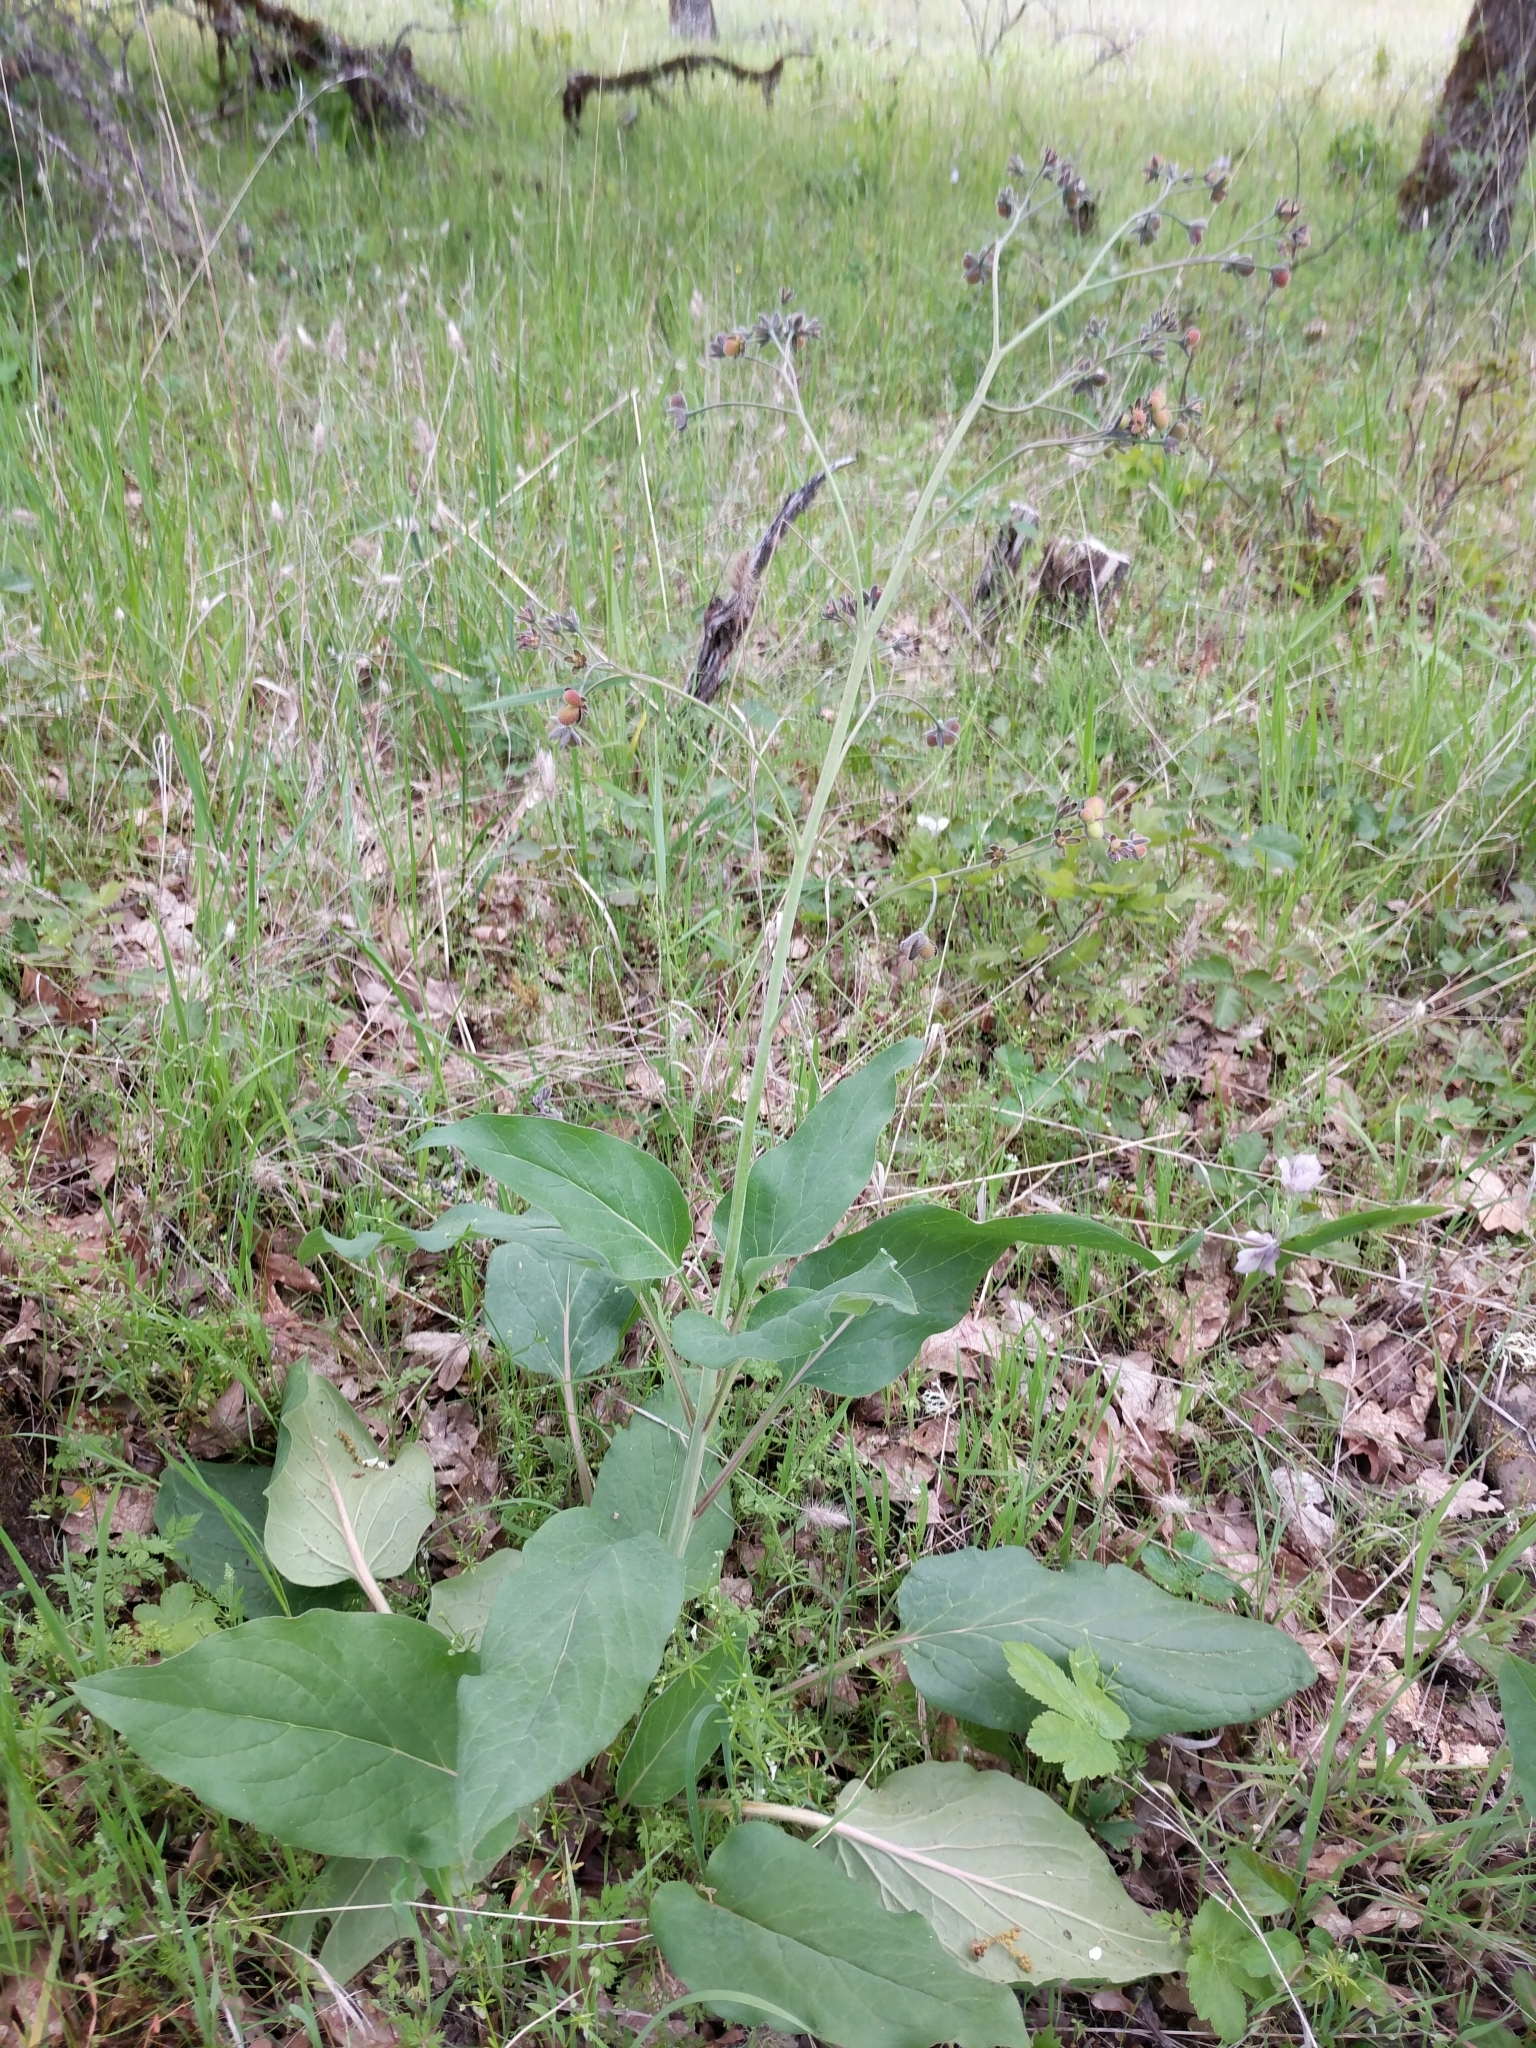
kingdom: Plantae
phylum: Tracheophyta
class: Magnoliopsida
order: Boraginales
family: Boraginaceae
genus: Adelinia
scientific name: Adelinia grande
